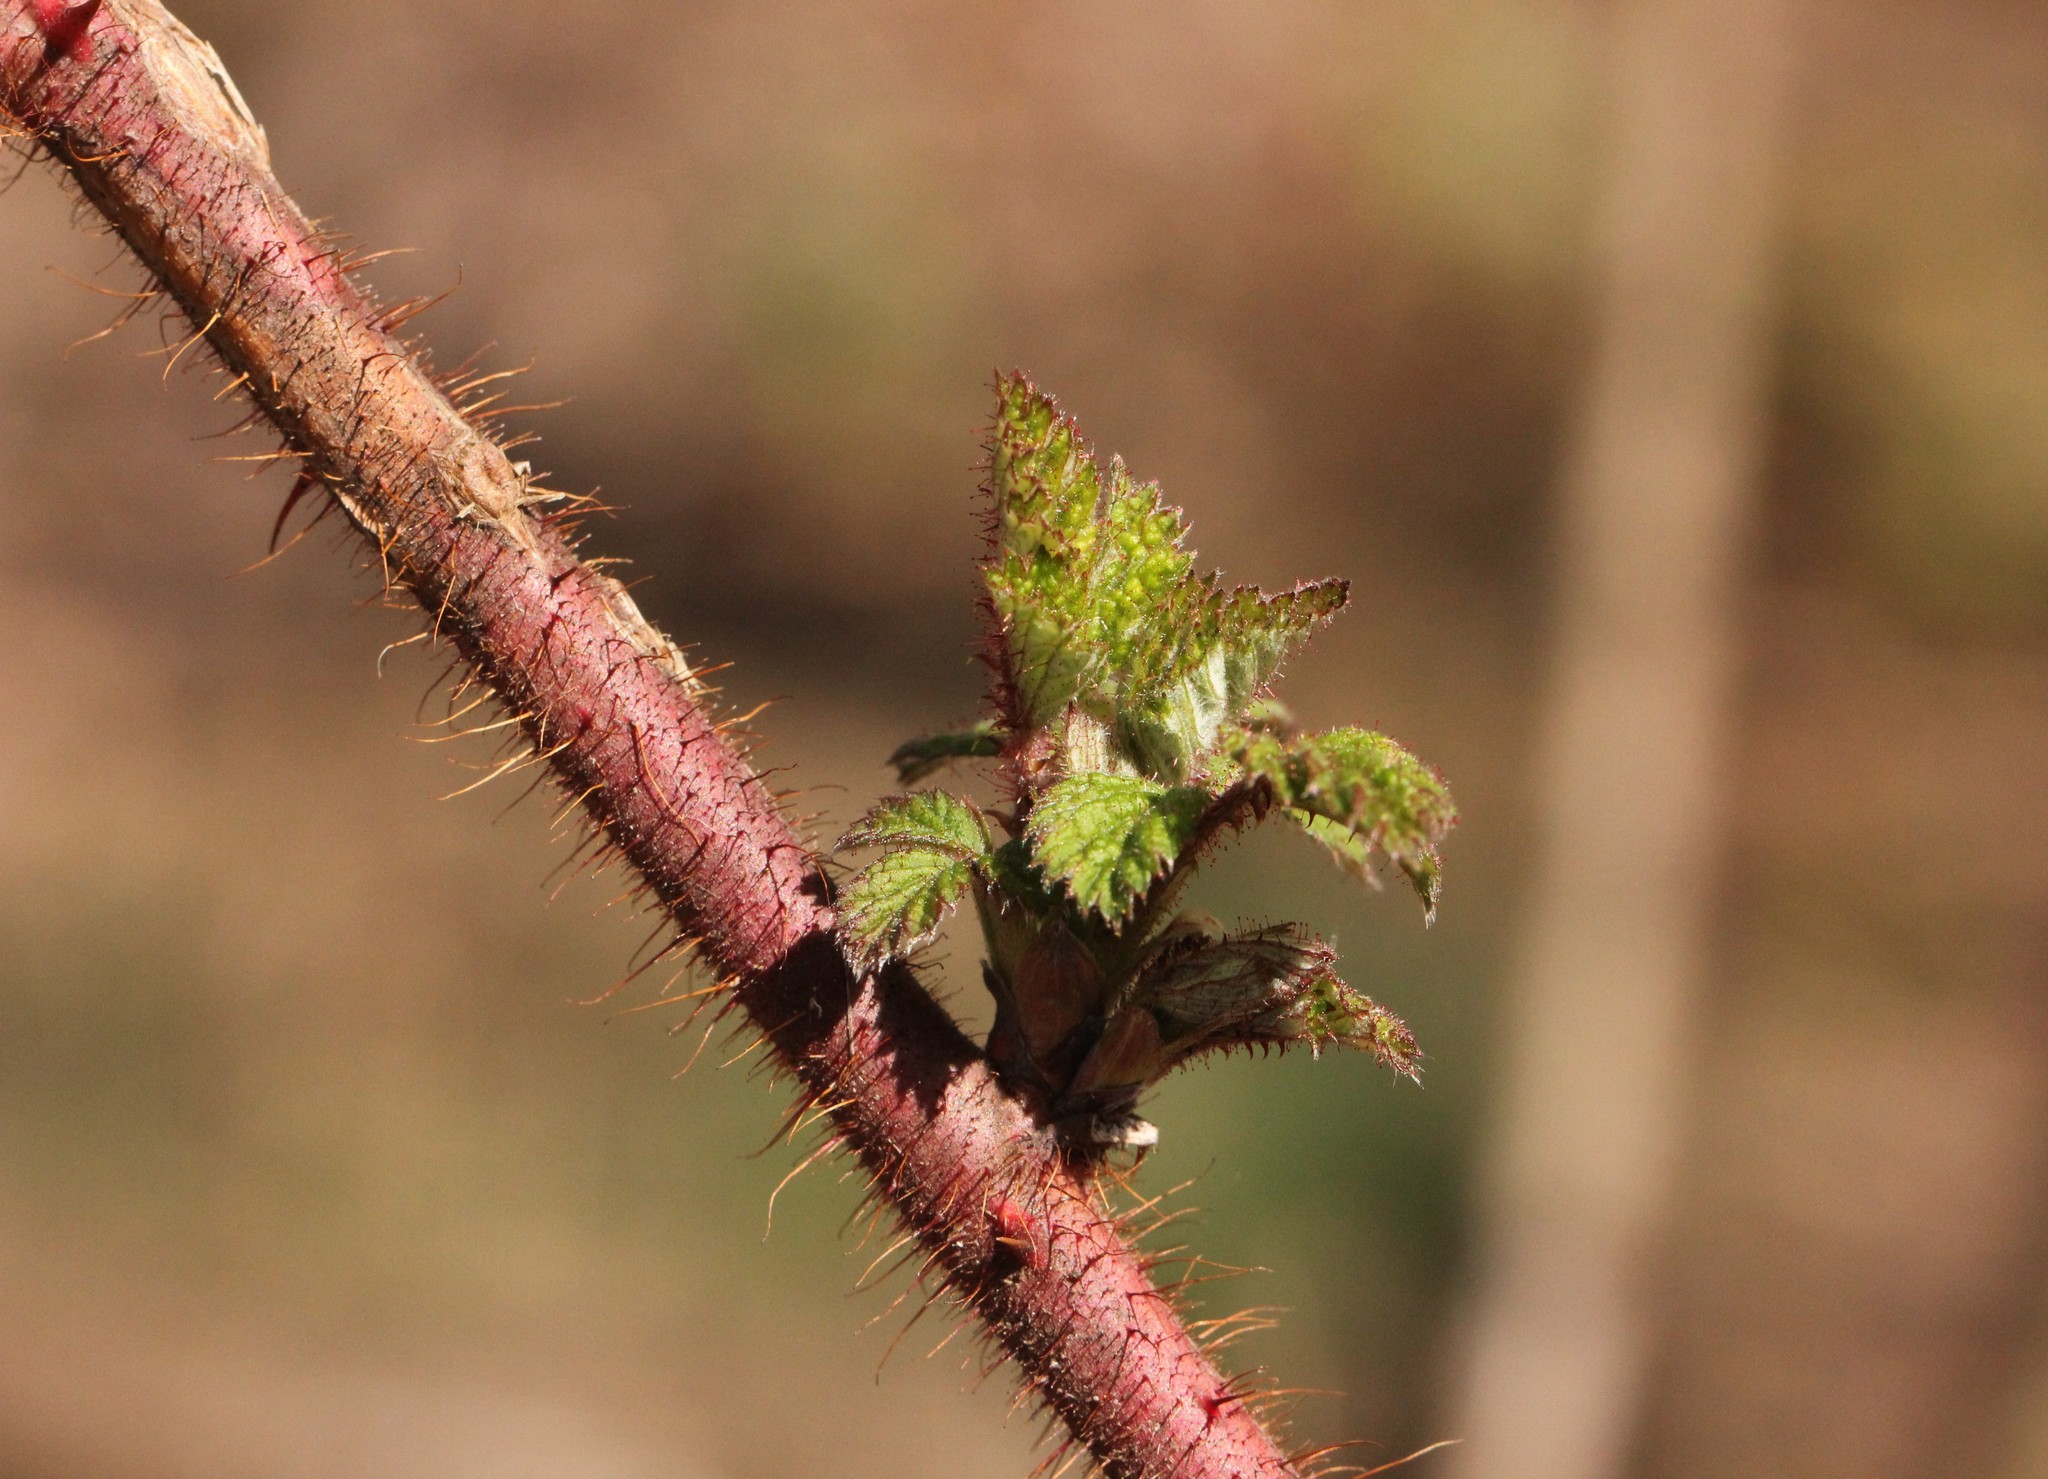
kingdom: Plantae
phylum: Tracheophyta
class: Magnoliopsida
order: Rosales
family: Rosaceae
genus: Rubus
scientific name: Rubus phoenicolasius
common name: Japanese wineberry
